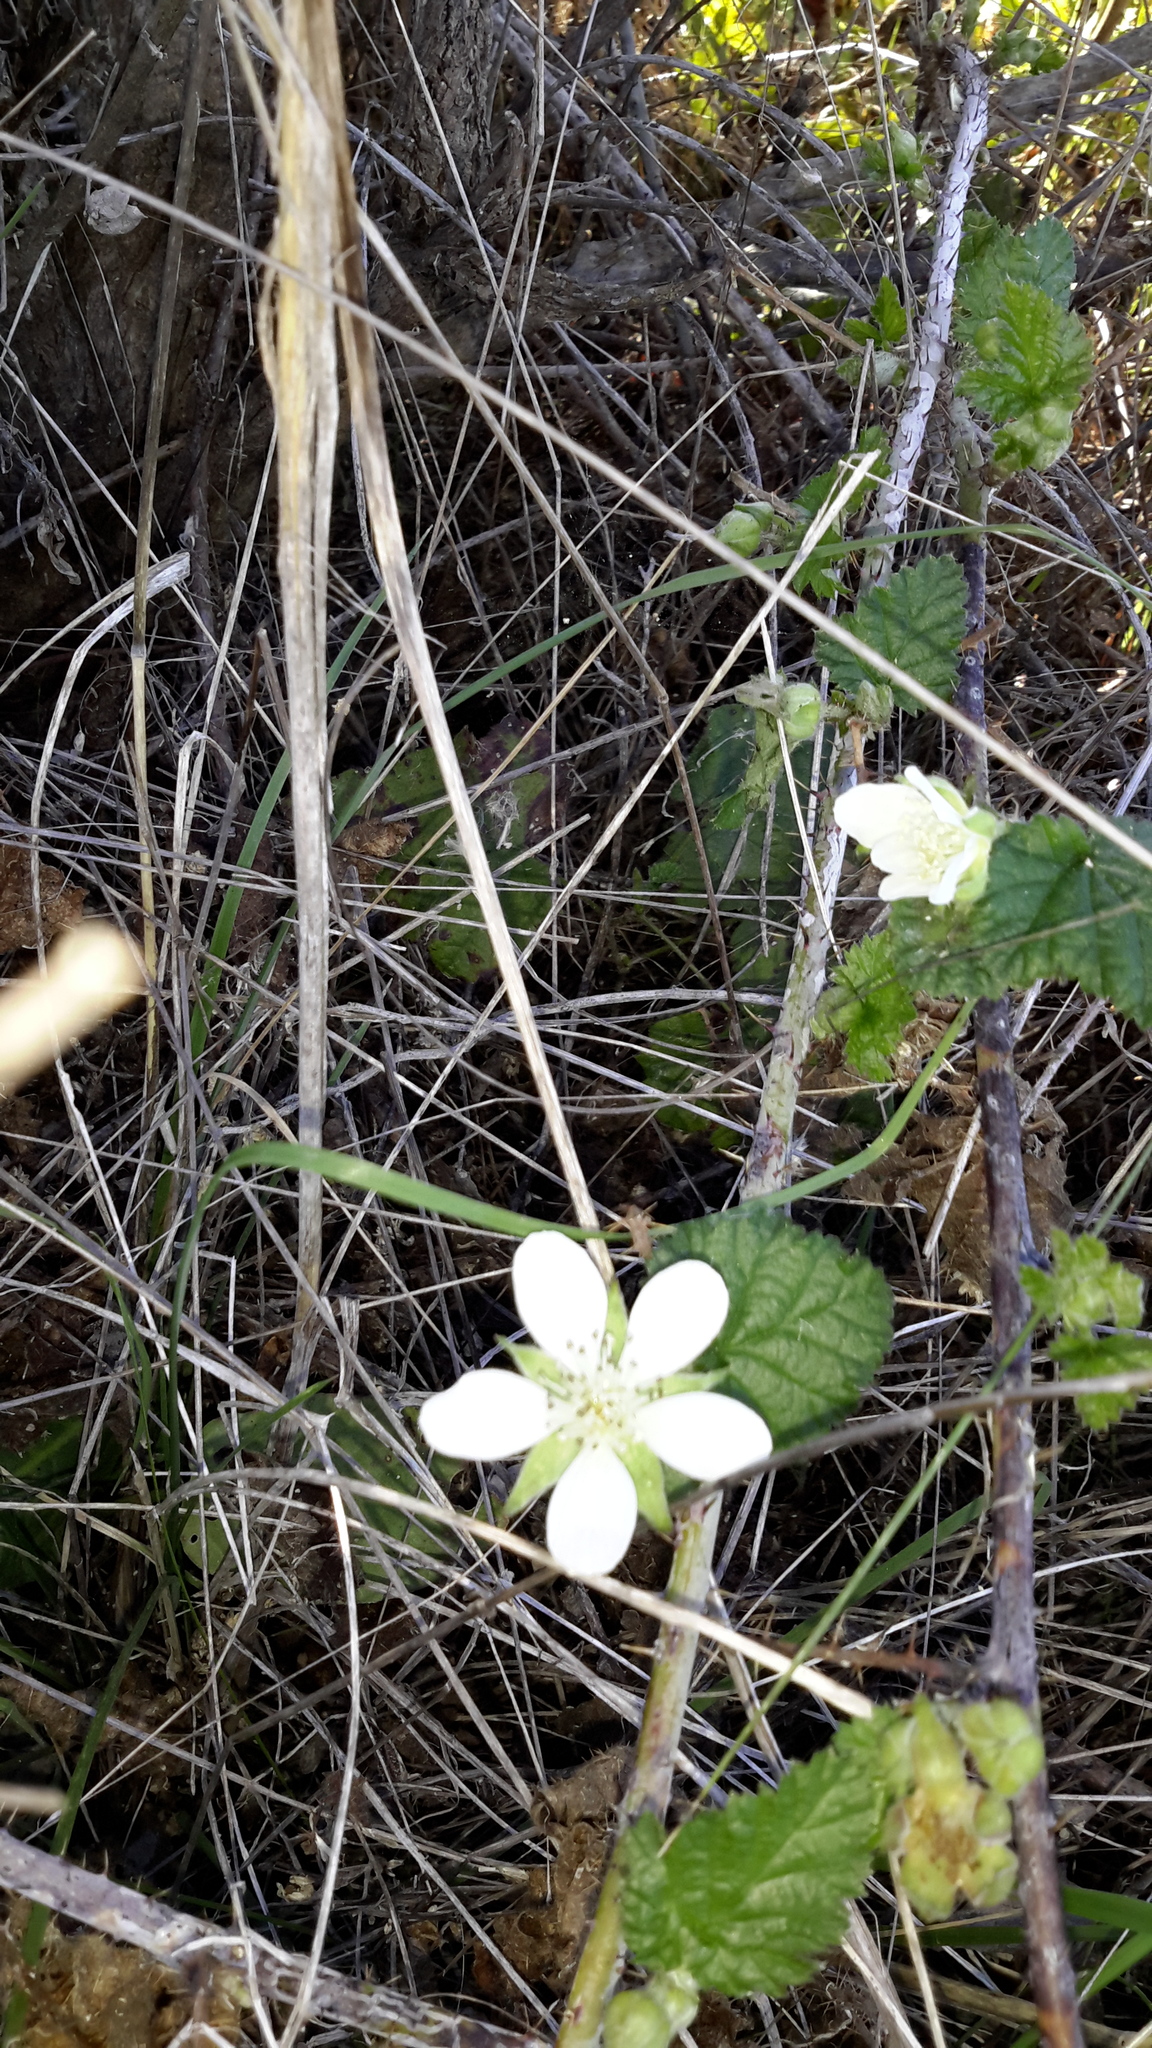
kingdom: Plantae
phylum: Tracheophyta
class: Magnoliopsida
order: Rosales
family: Rosaceae
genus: Rubus
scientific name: Rubus ursinus
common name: Pacific blackberry
